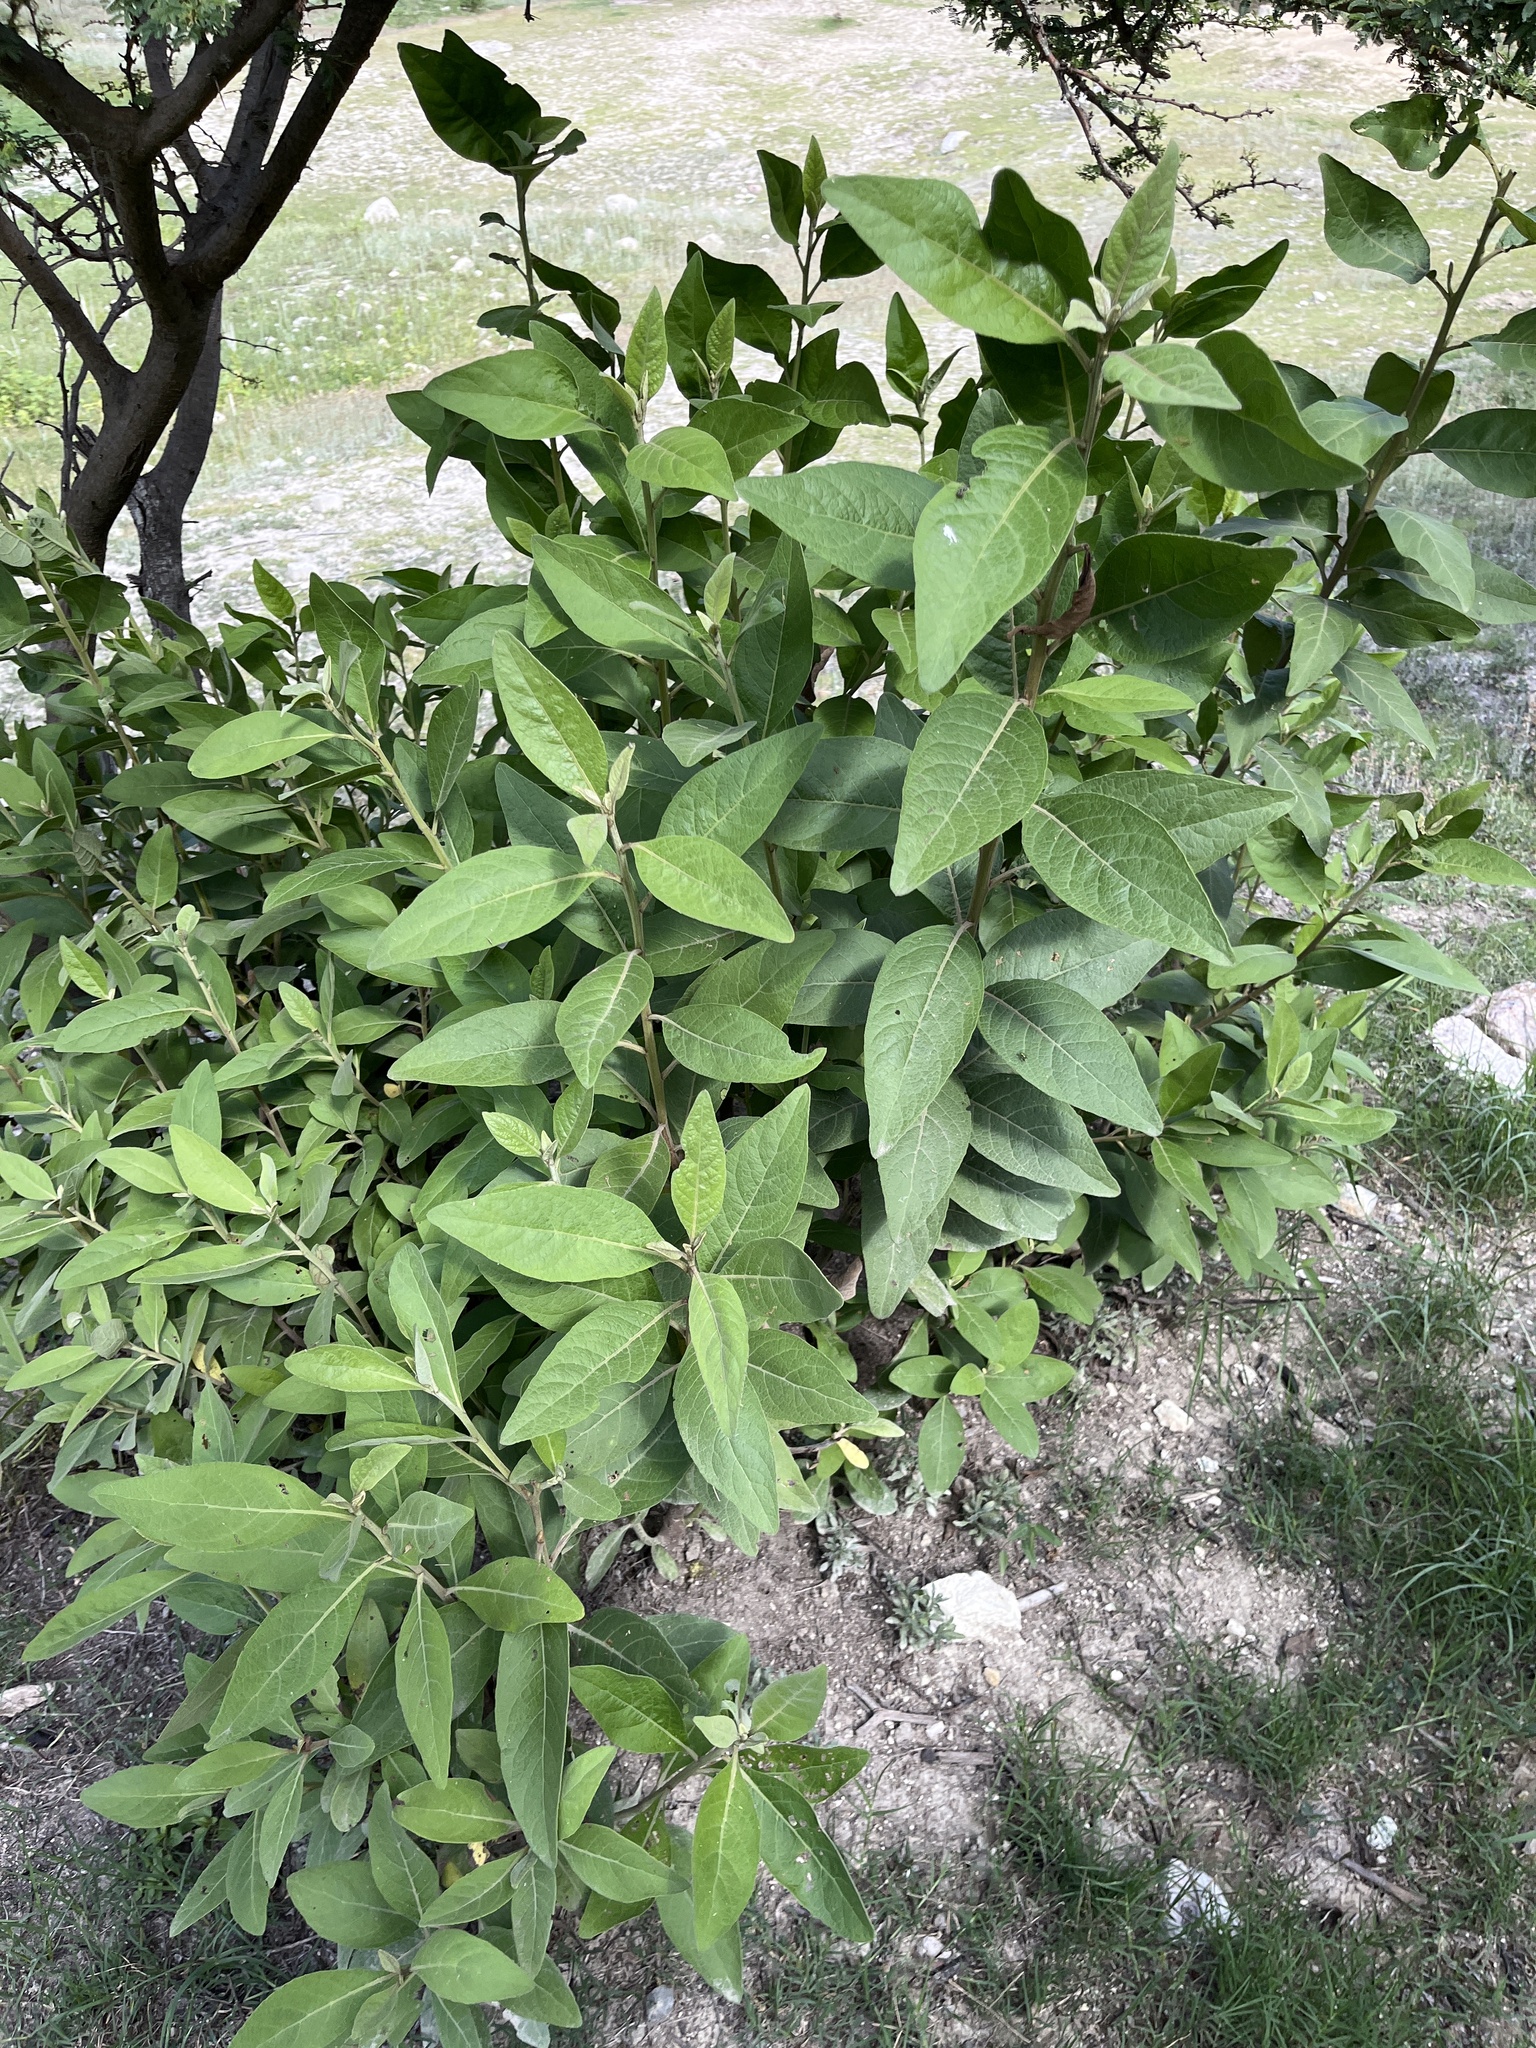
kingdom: Plantae
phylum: Tracheophyta
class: Magnoliopsida
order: Asterales
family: Asteraceae
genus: Pluchea
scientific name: Pluchea carolinensis
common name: Marsh fleabane
